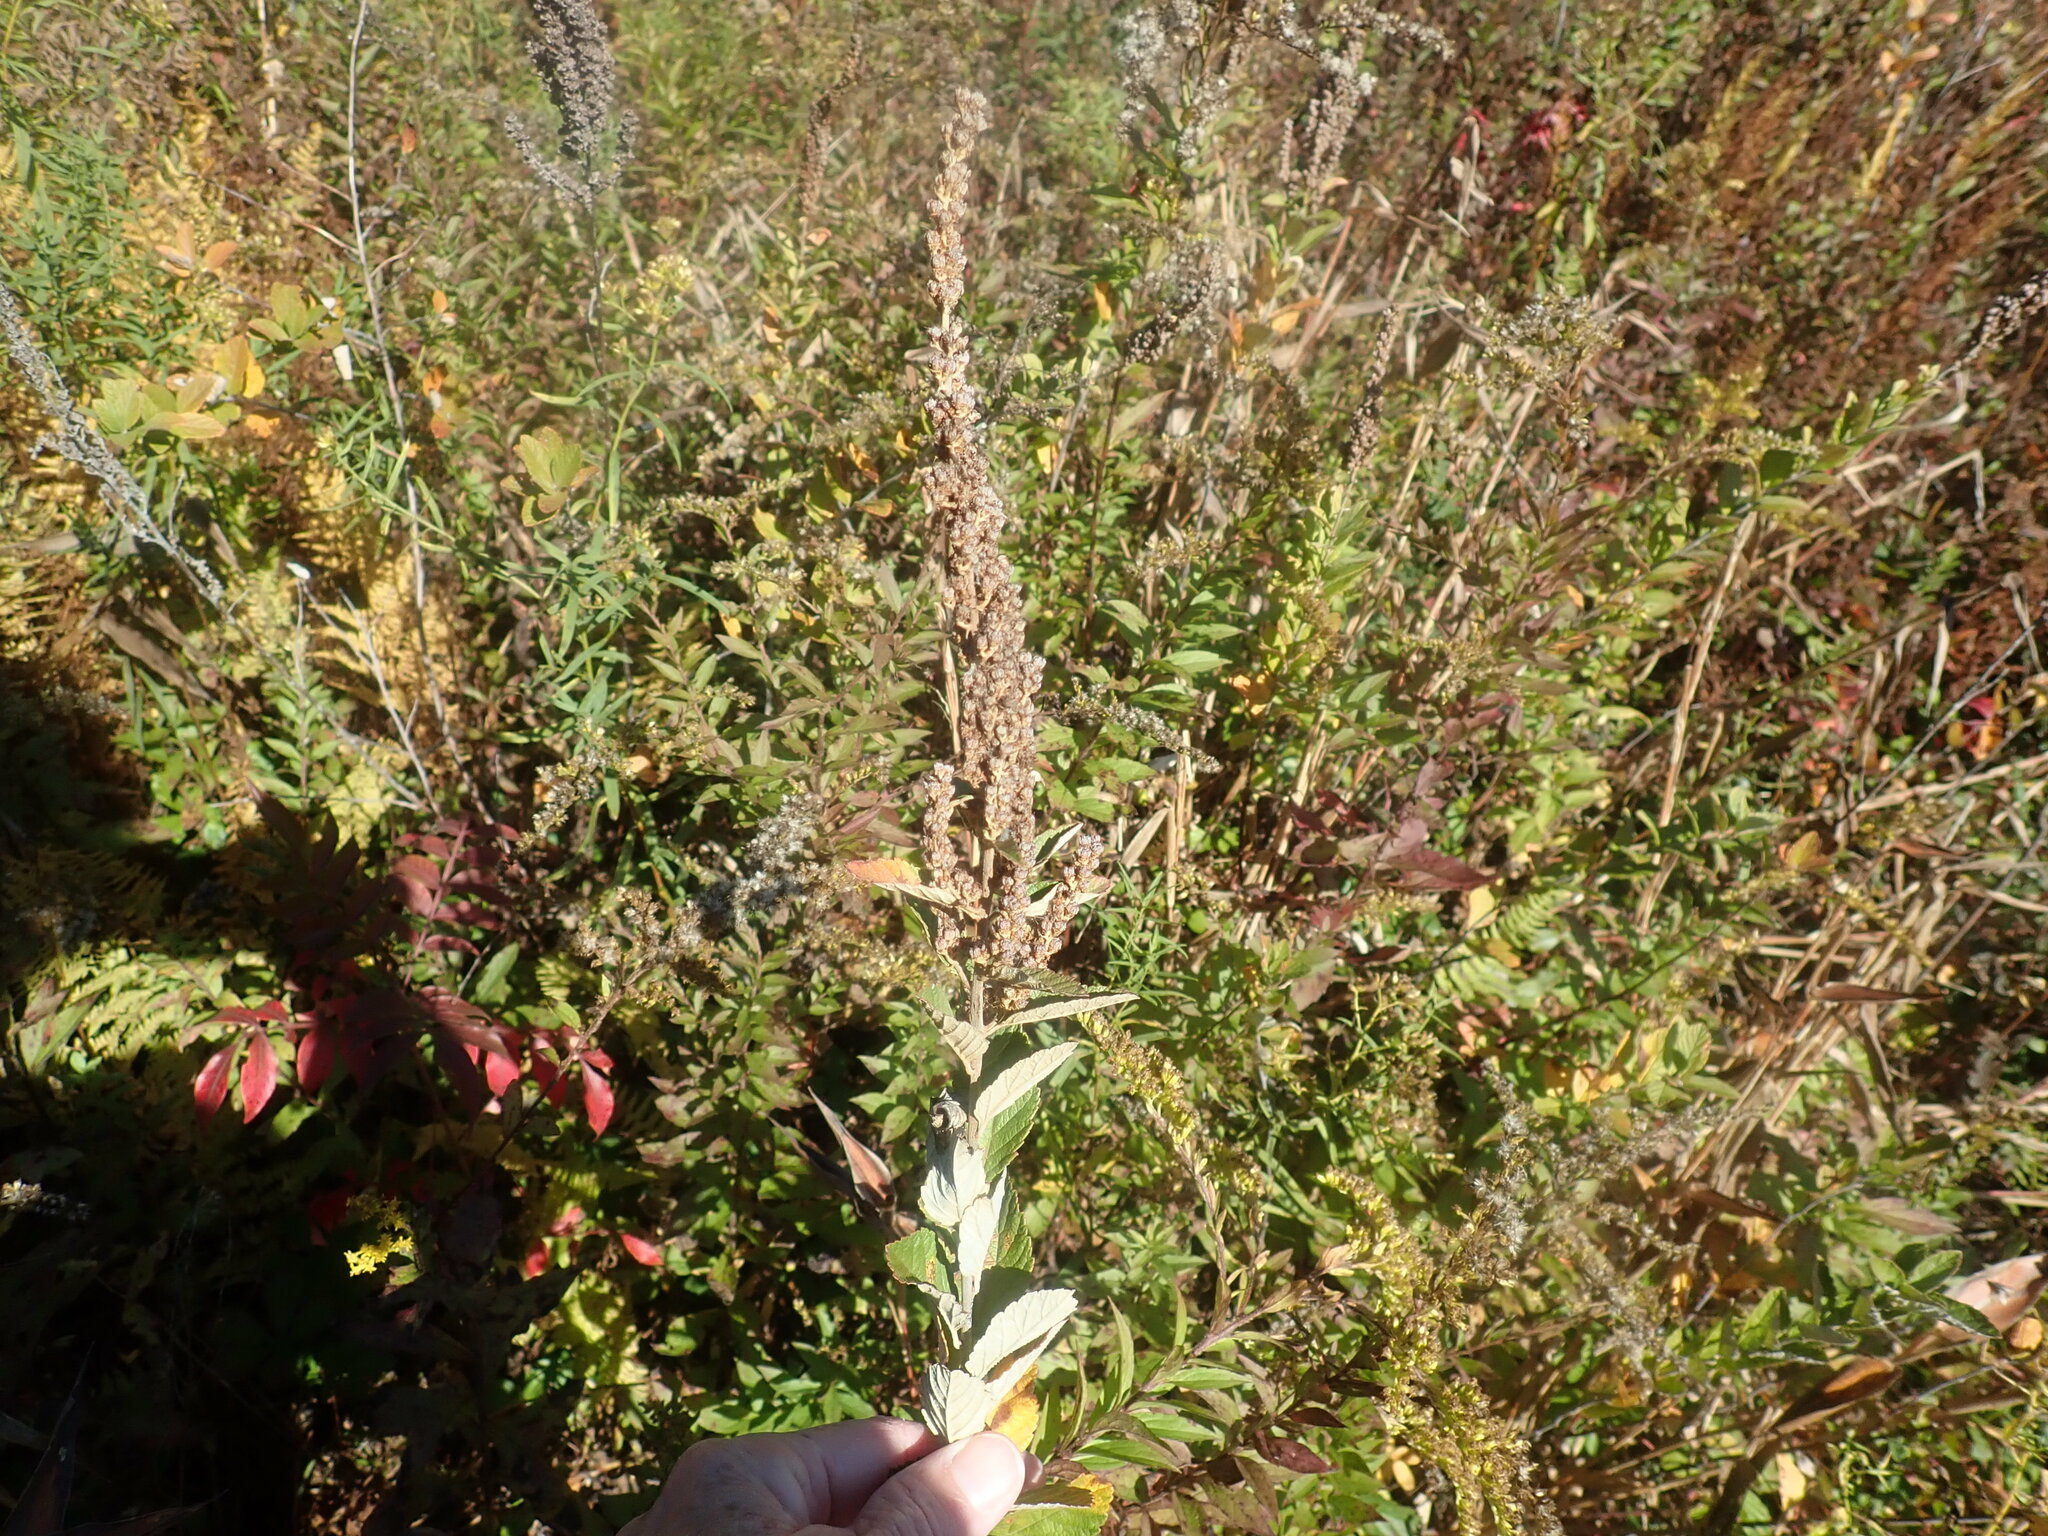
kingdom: Plantae
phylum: Tracheophyta
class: Magnoliopsida
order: Rosales
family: Rosaceae
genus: Spiraea
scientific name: Spiraea tomentosa
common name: Hardhack
